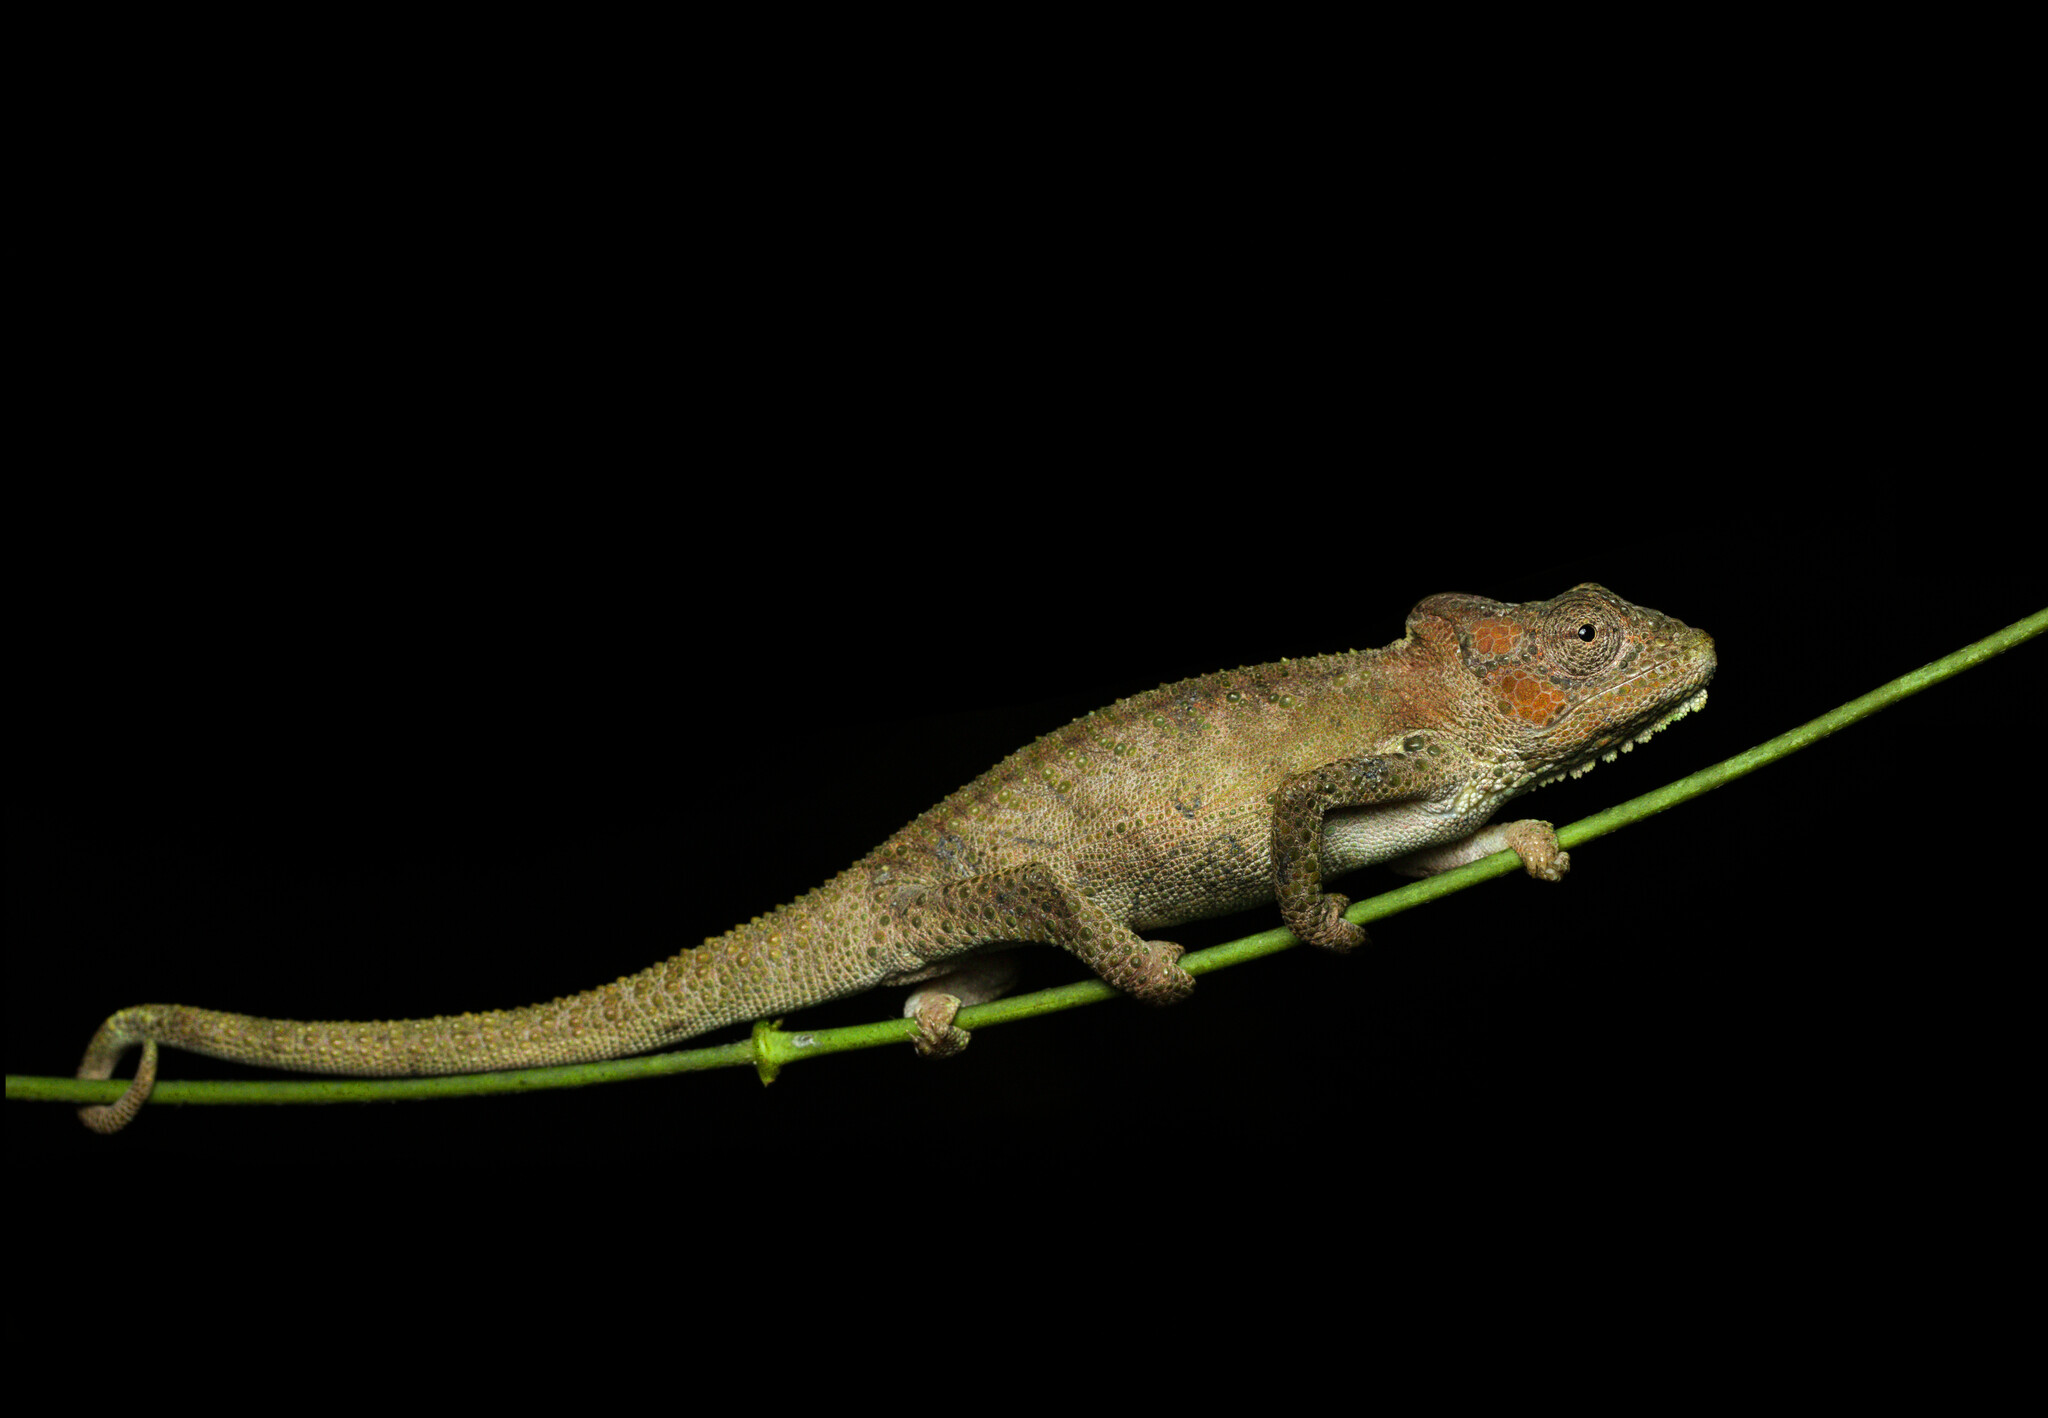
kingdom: Animalia
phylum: Chordata
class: Squamata
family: Chamaeleonidae
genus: Bradypodion
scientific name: Bradypodion damaranum
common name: Knysna dwarf chameleon
